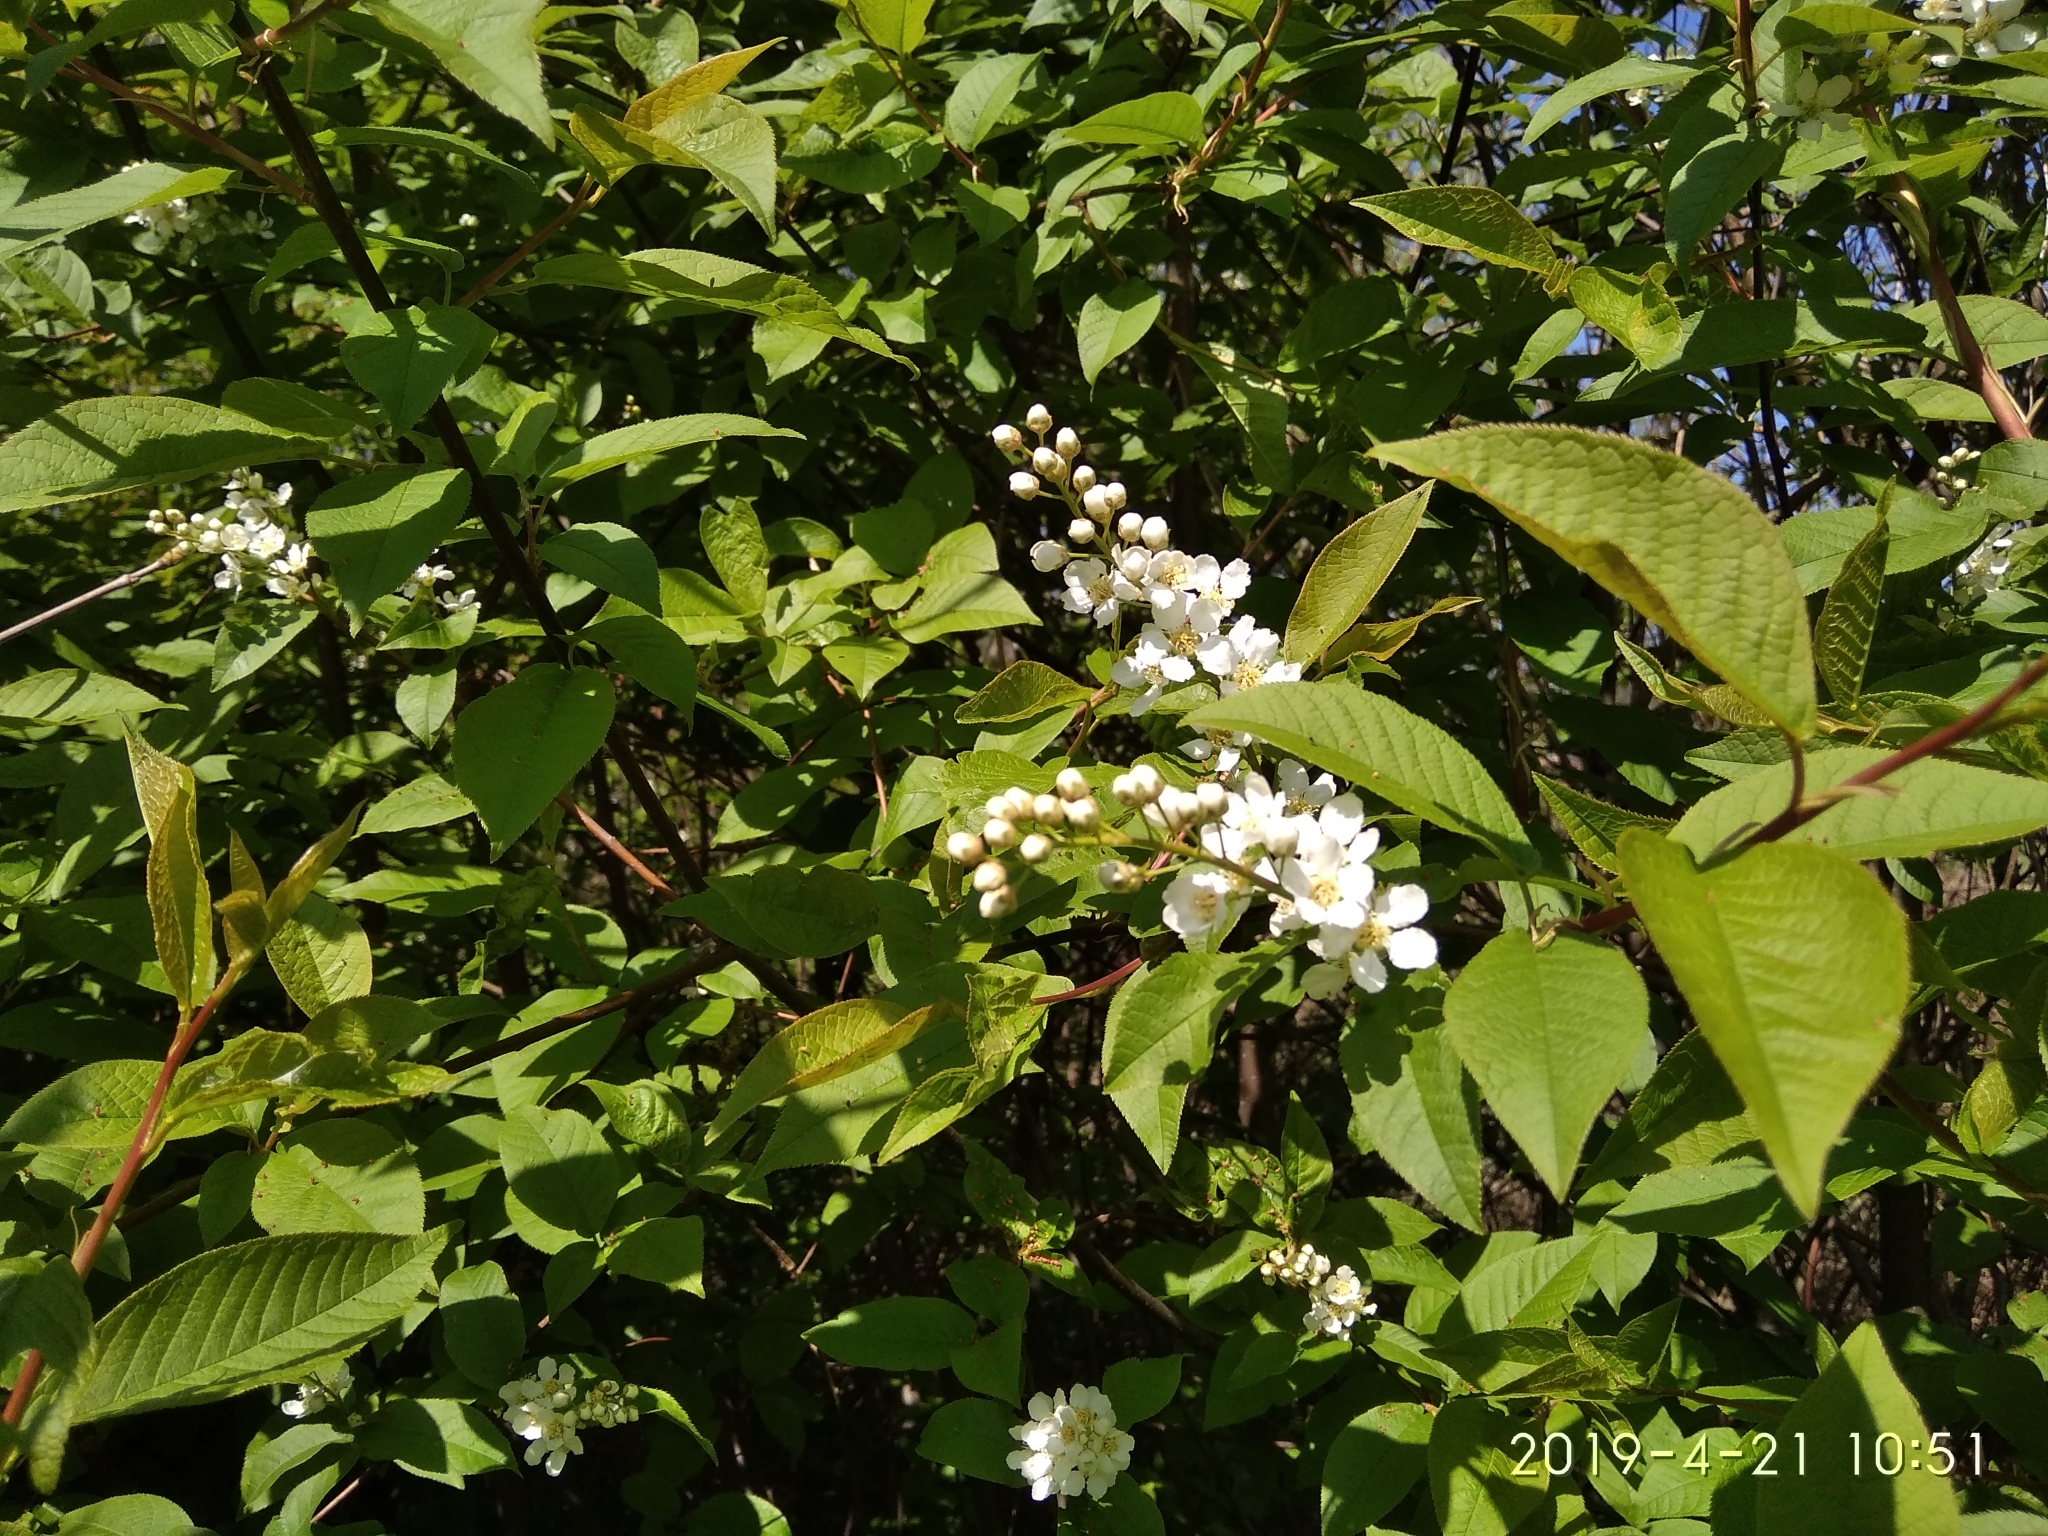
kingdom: Plantae
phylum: Tracheophyta
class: Magnoliopsida
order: Rosales
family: Rosaceae
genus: Prunus
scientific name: Prunus padus
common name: Bird cherry
